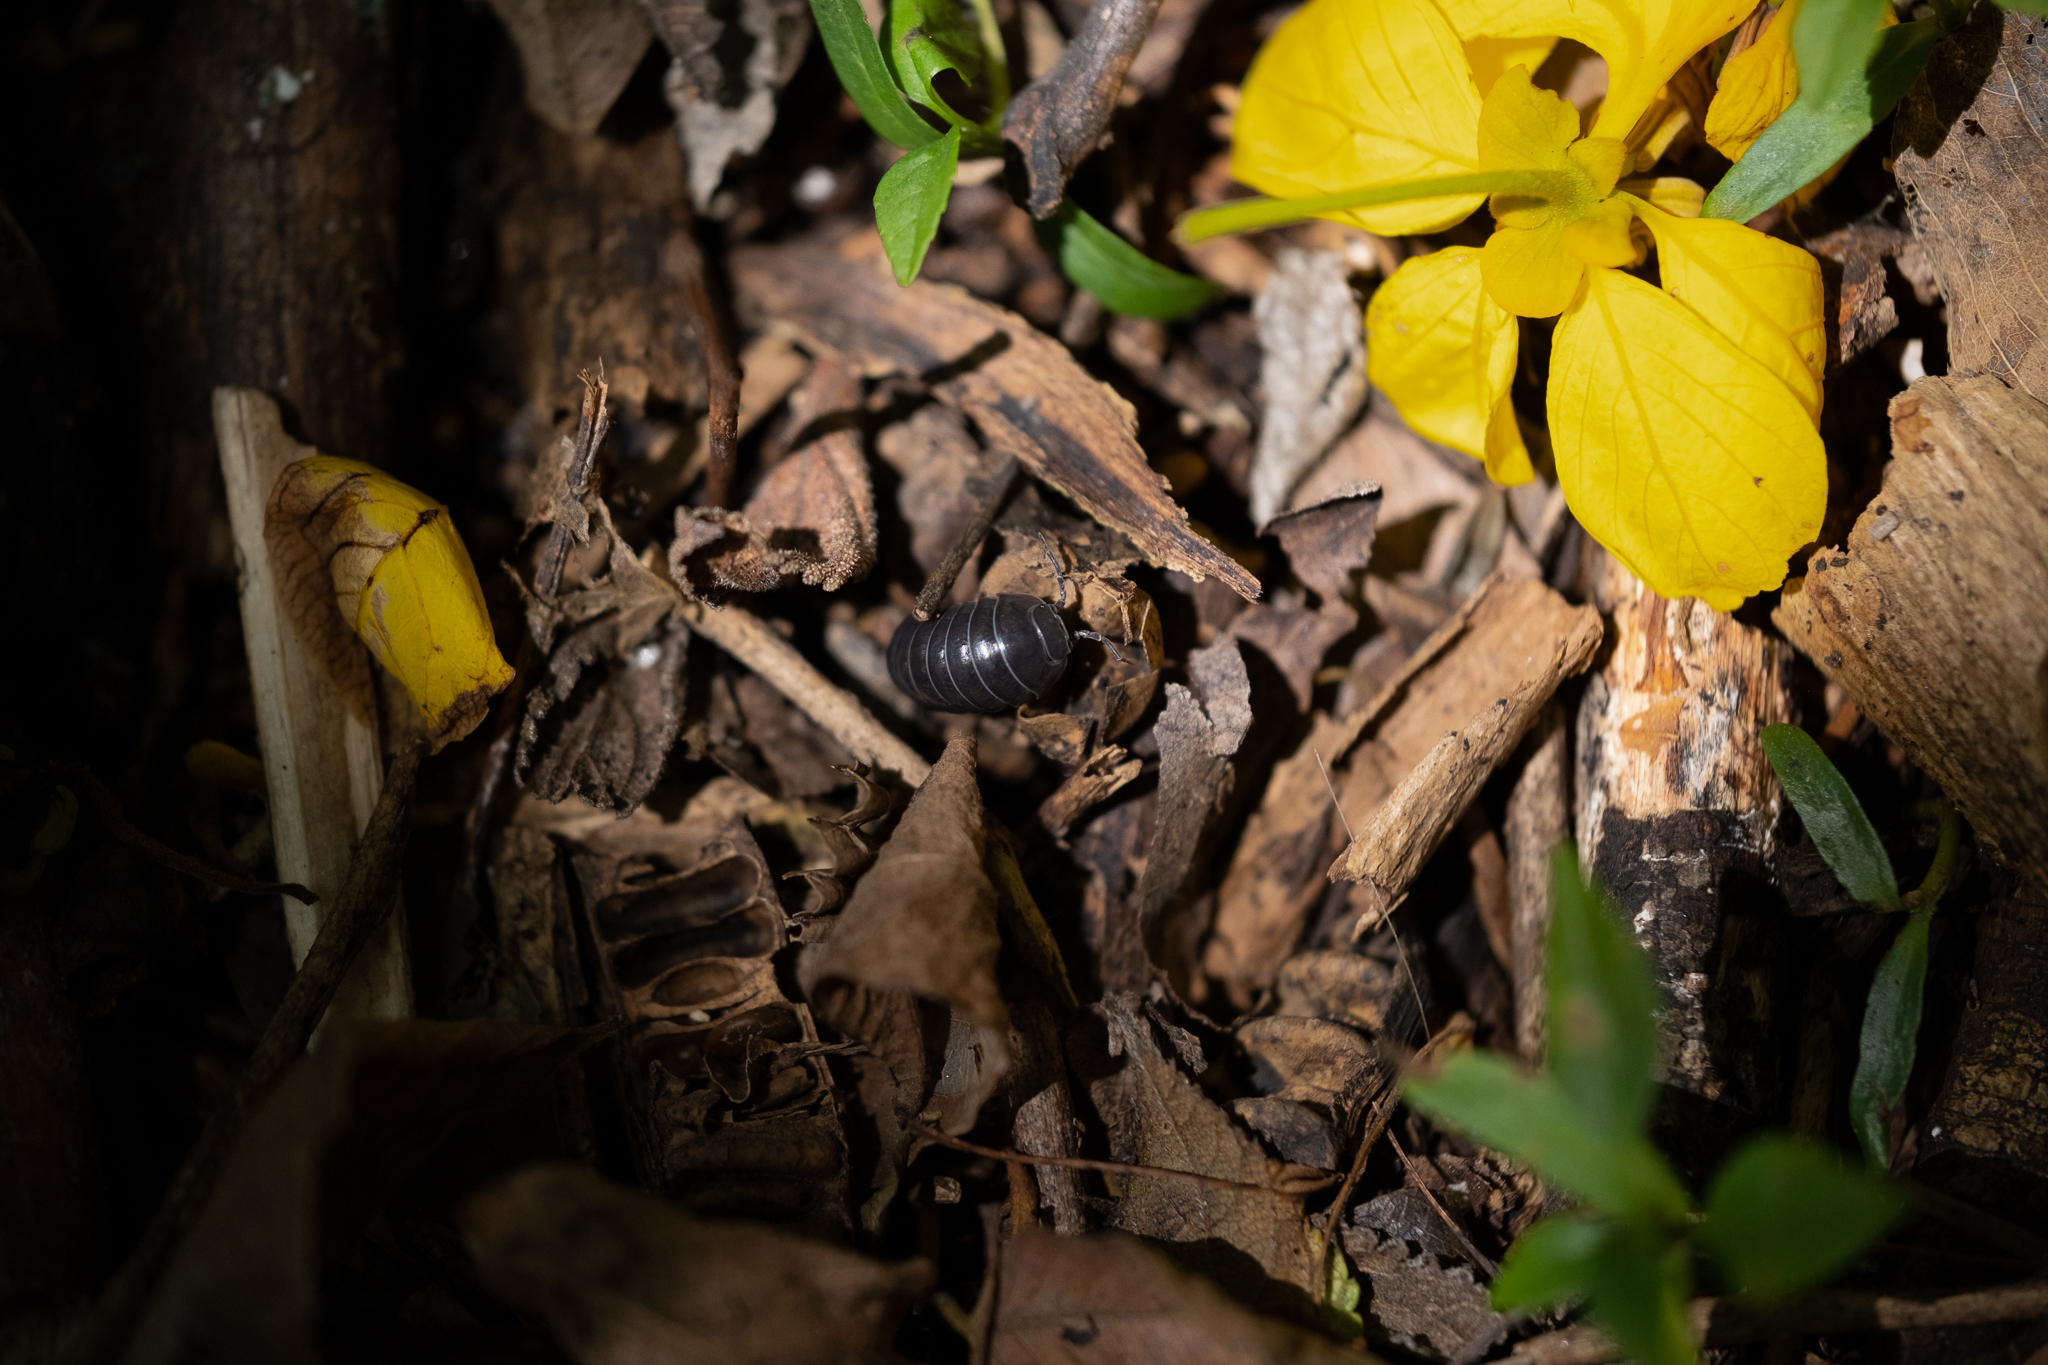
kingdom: Animalia
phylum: Arthropoda
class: Malacostraca
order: Isopoda
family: Armadillidiidae
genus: Armadillidium
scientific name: Armadillidium vulgare
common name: Common pill woodlouse
